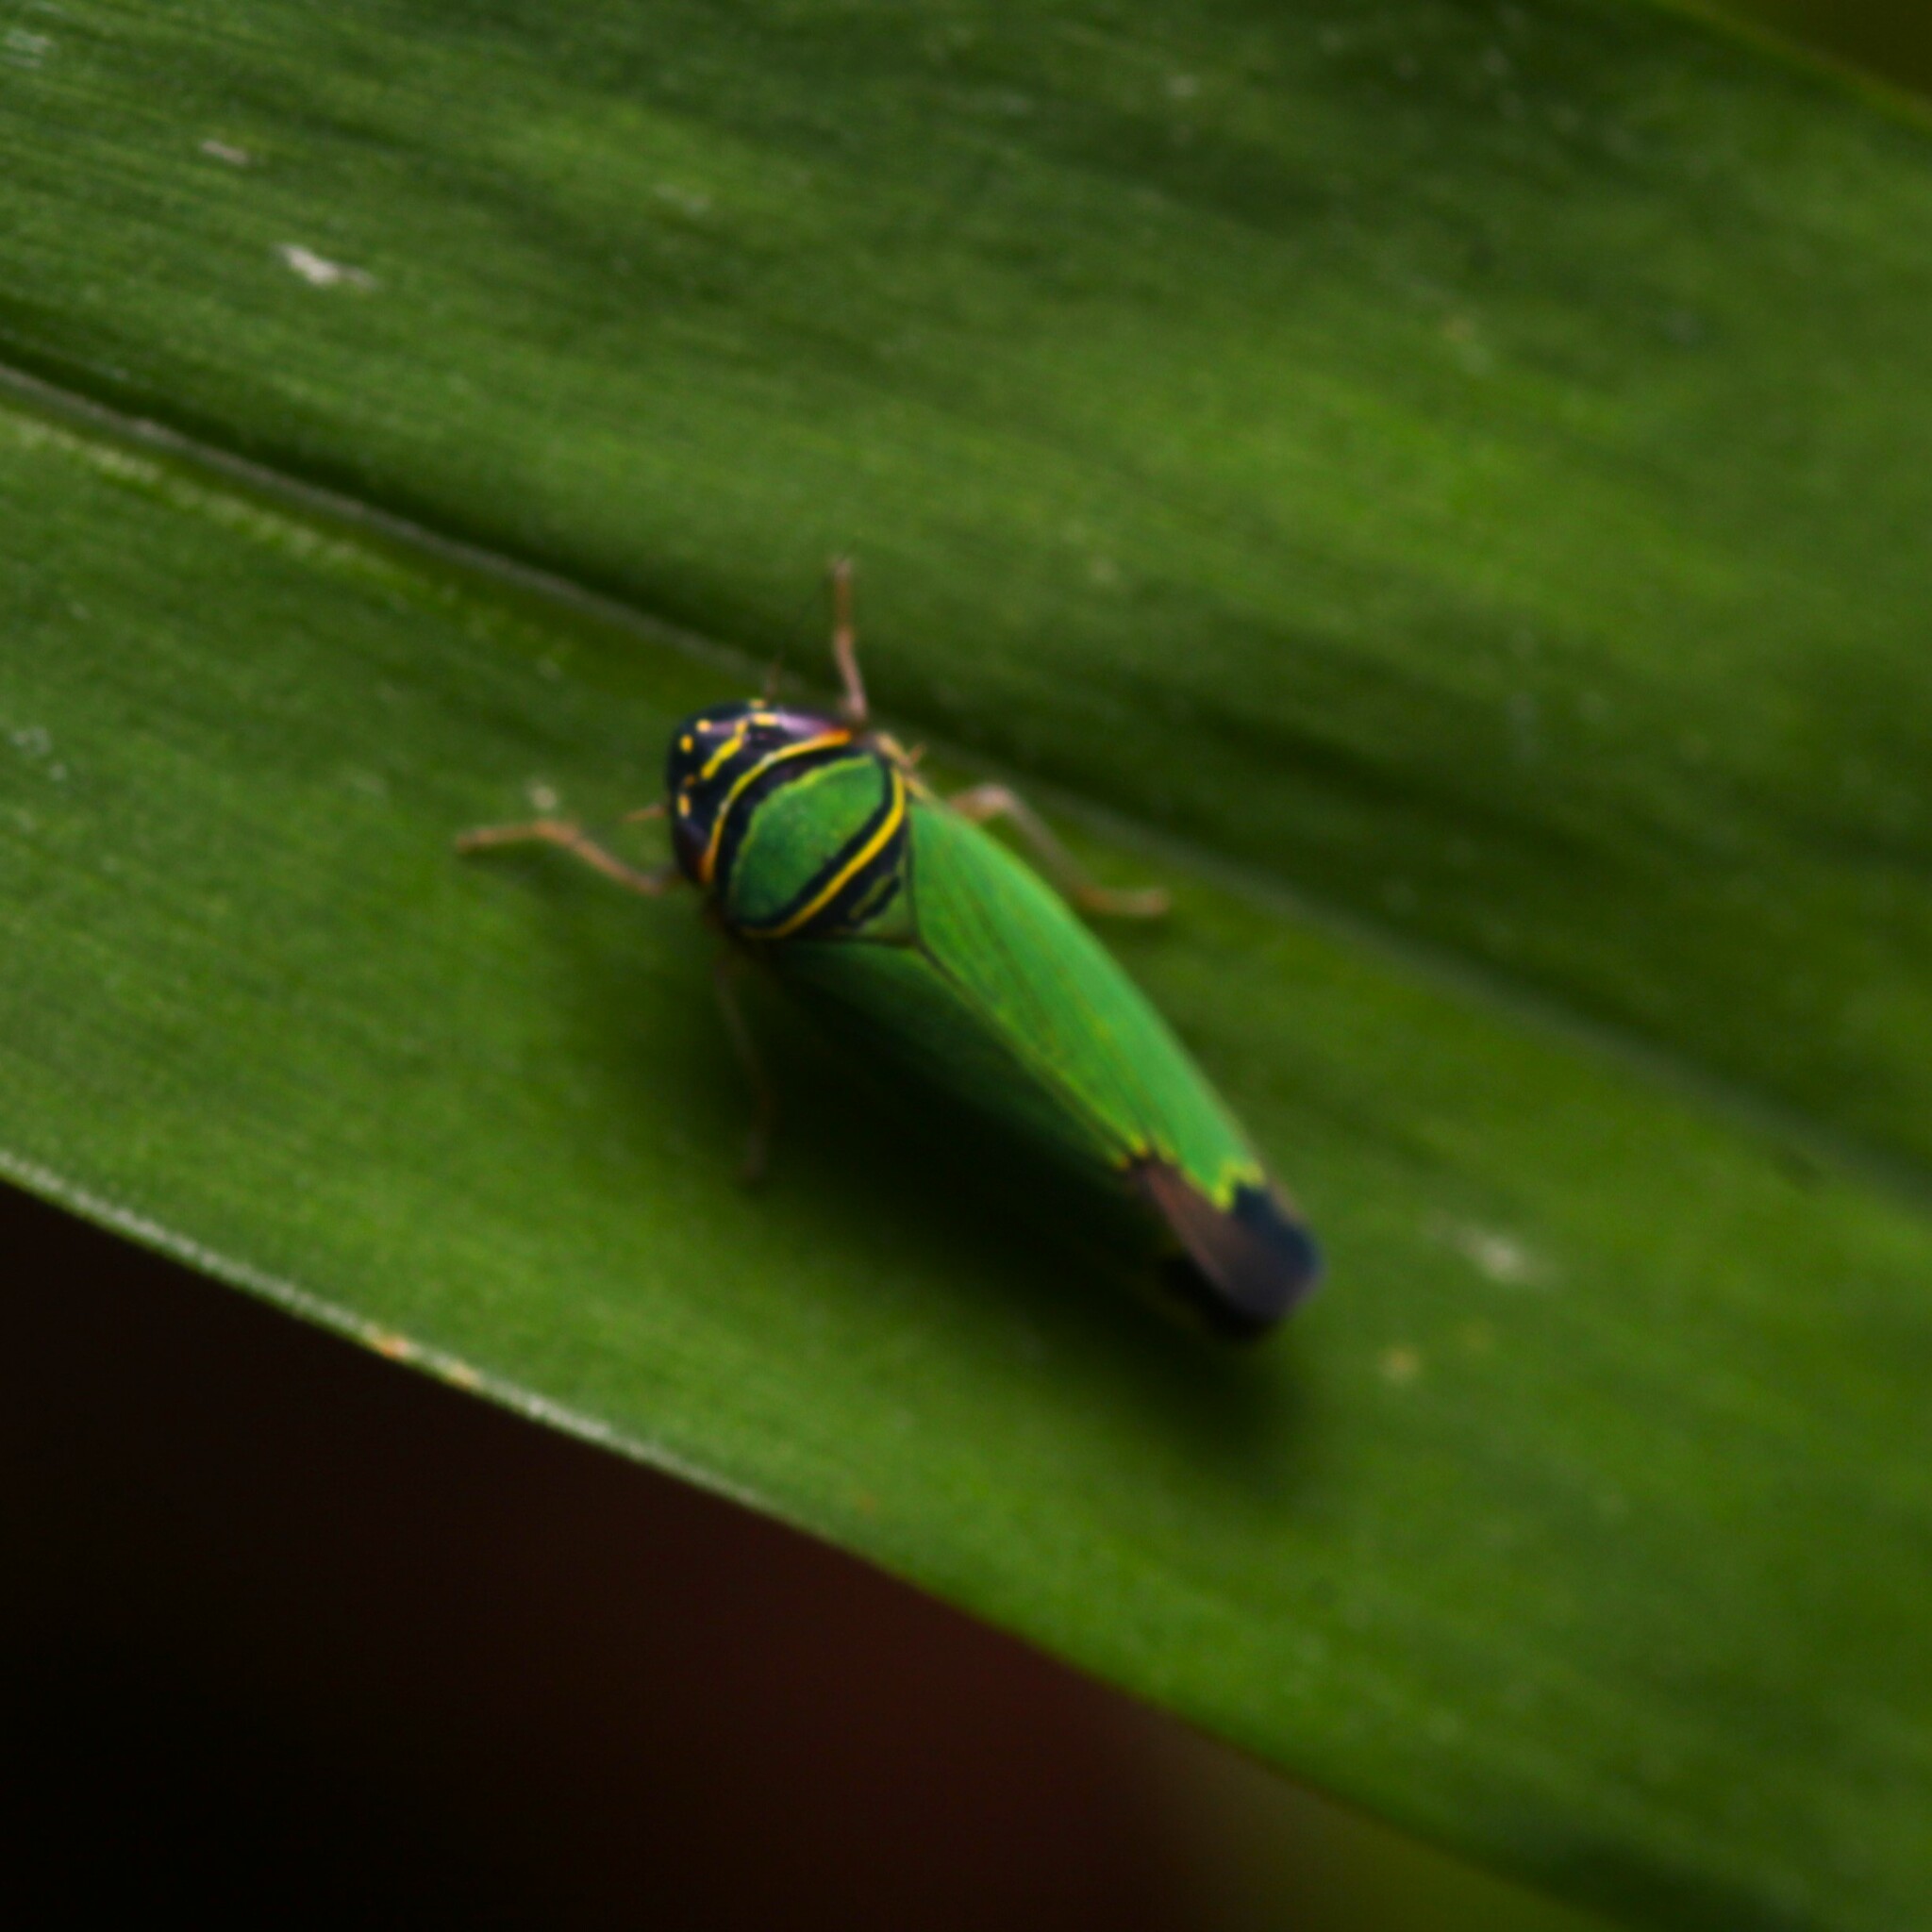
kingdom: Animalia
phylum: Arthropoda
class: Insecta
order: Hemiptera
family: Cicadellidae
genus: Tylozygus
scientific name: Tylozygus geometricus
